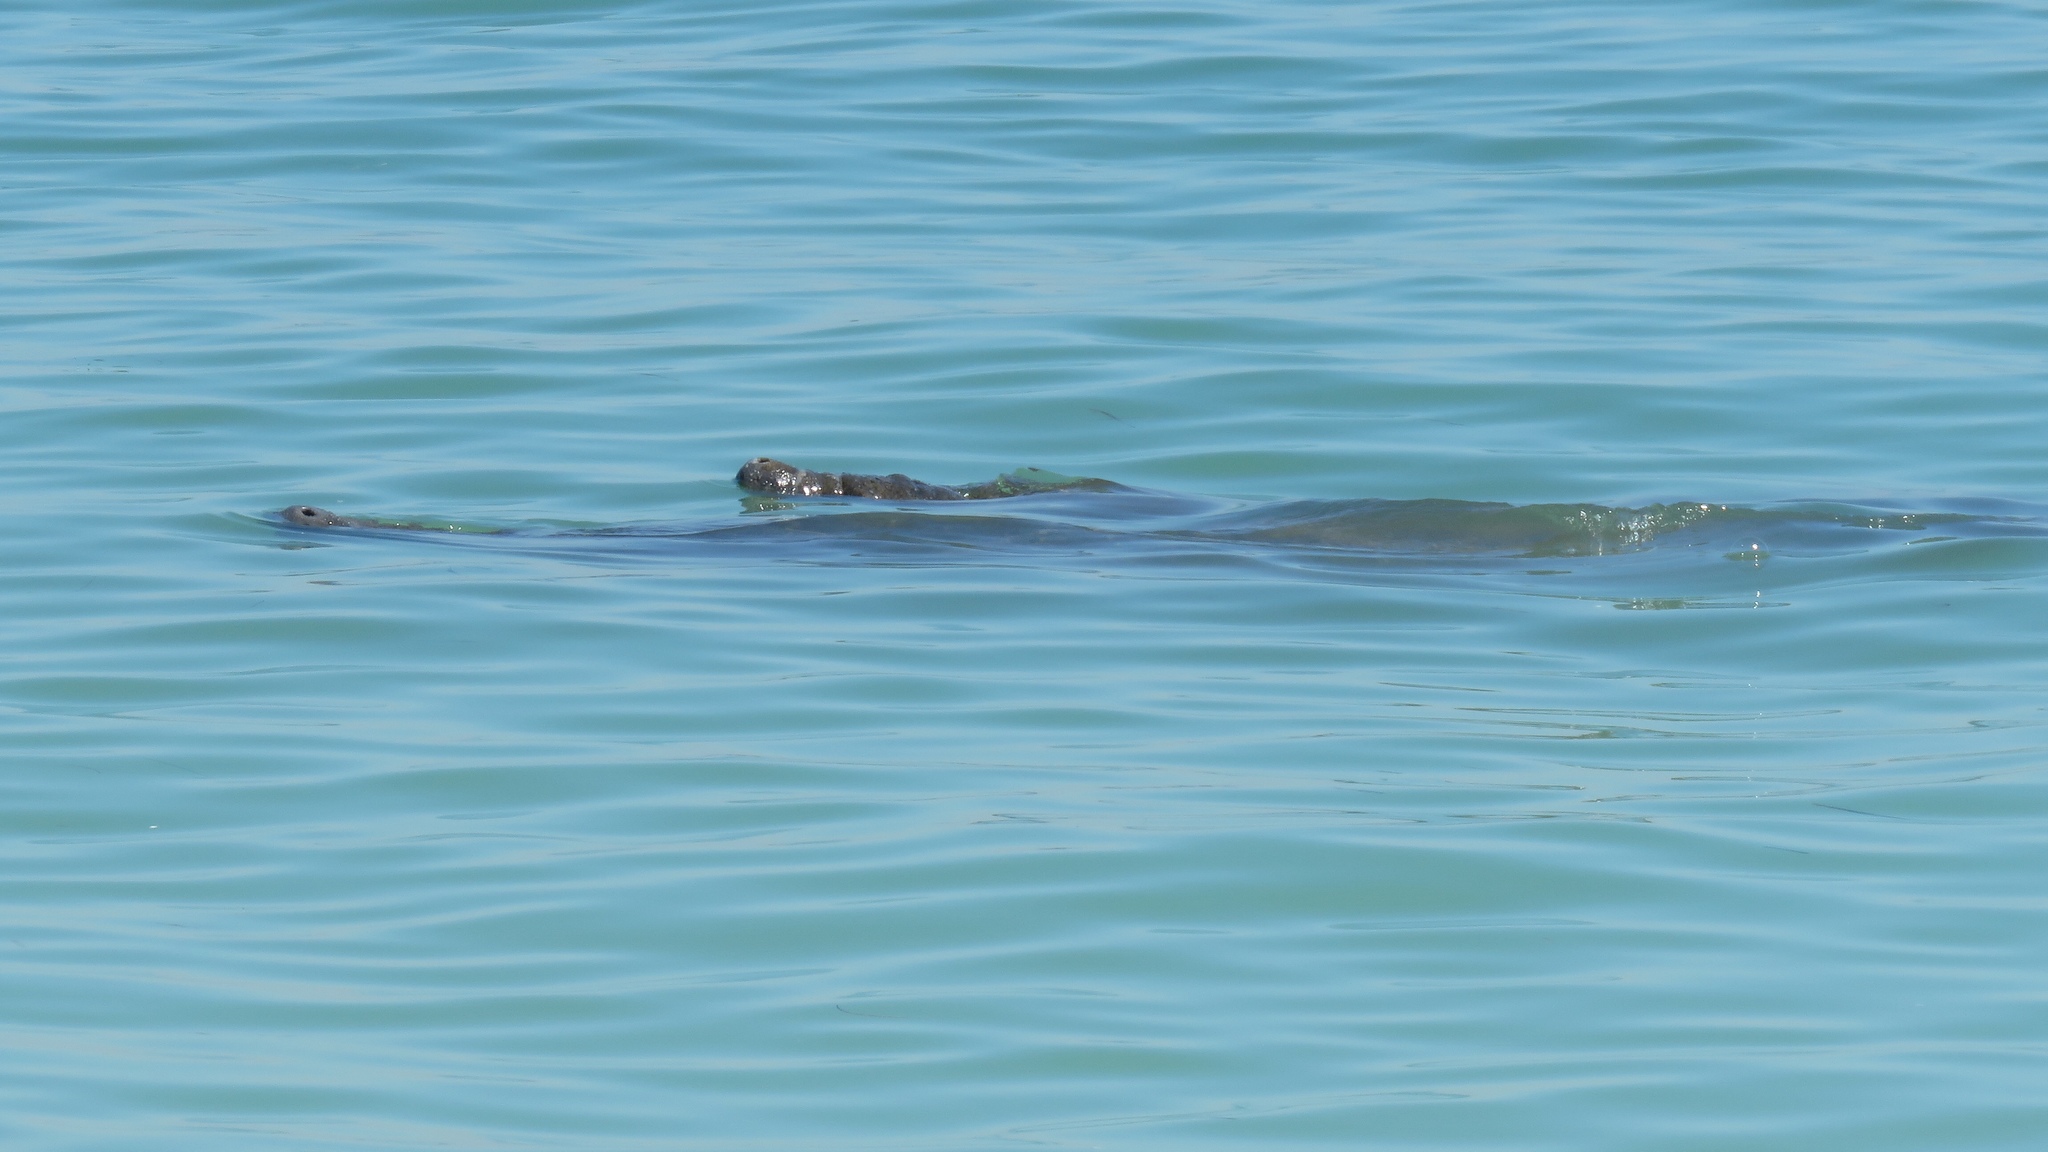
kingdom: Animalia
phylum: Chordata
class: Mammalia
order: Sirenia
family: Trichechidae
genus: Trichechus
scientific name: Trichechus manatus
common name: West indian manatee
